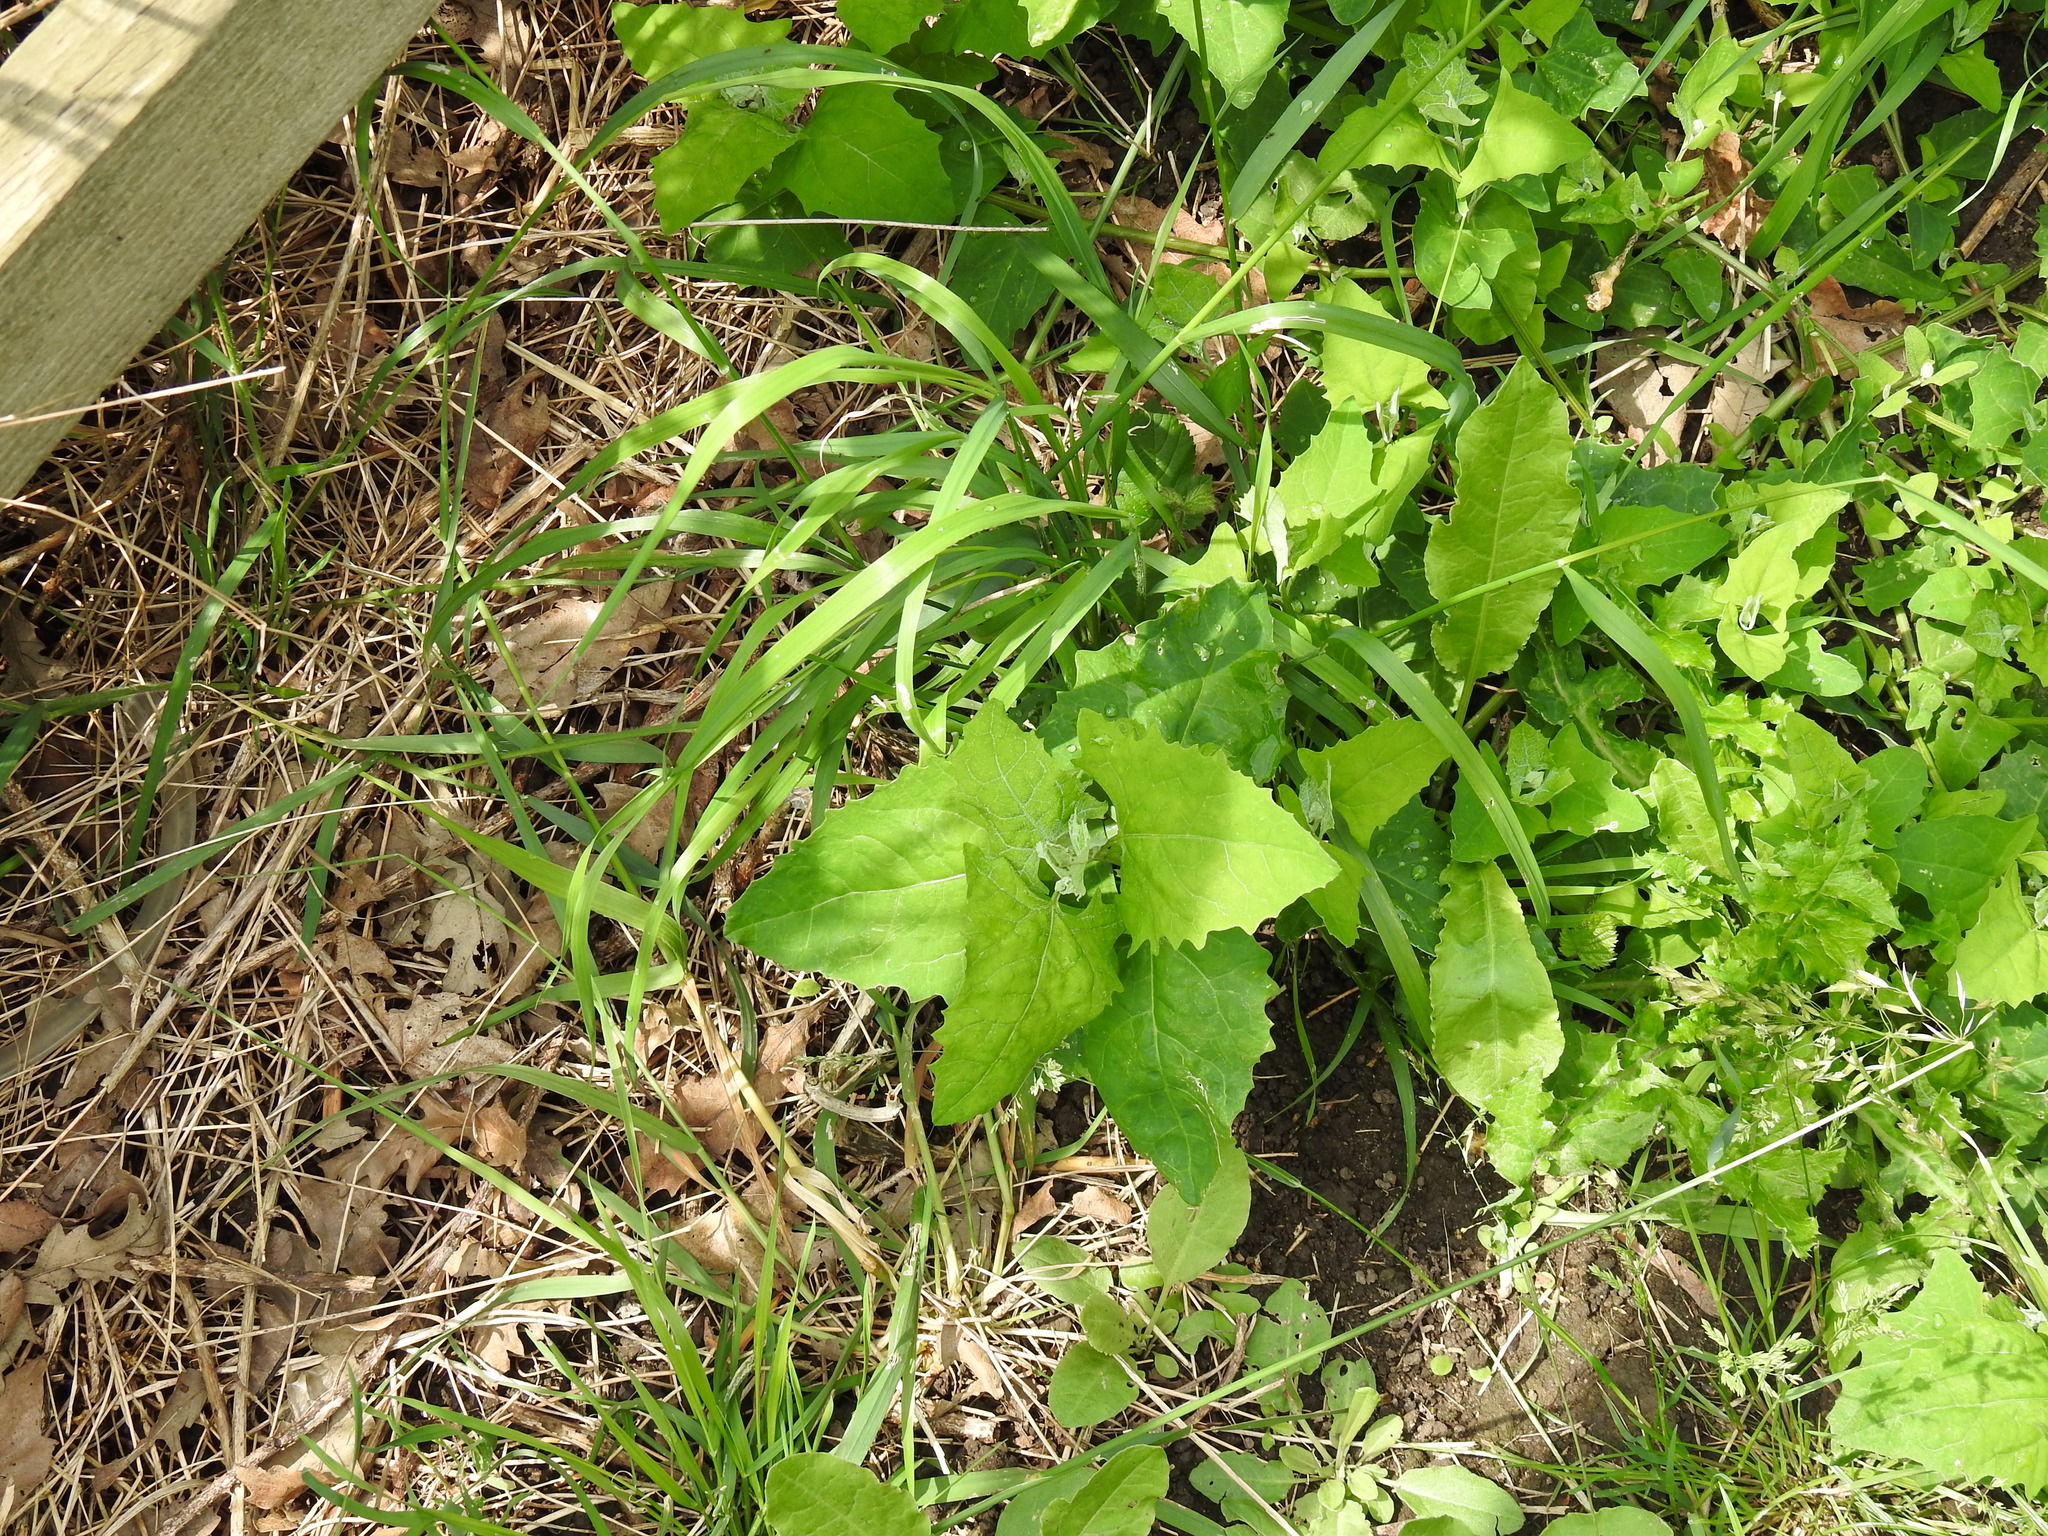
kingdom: Plantae
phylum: Tracheophyta
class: Magnoliopsida
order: Caryophyllales
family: Amaranthaceae
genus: Atriplex
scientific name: Atriplex prostrata
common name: Spear-leaved orache
